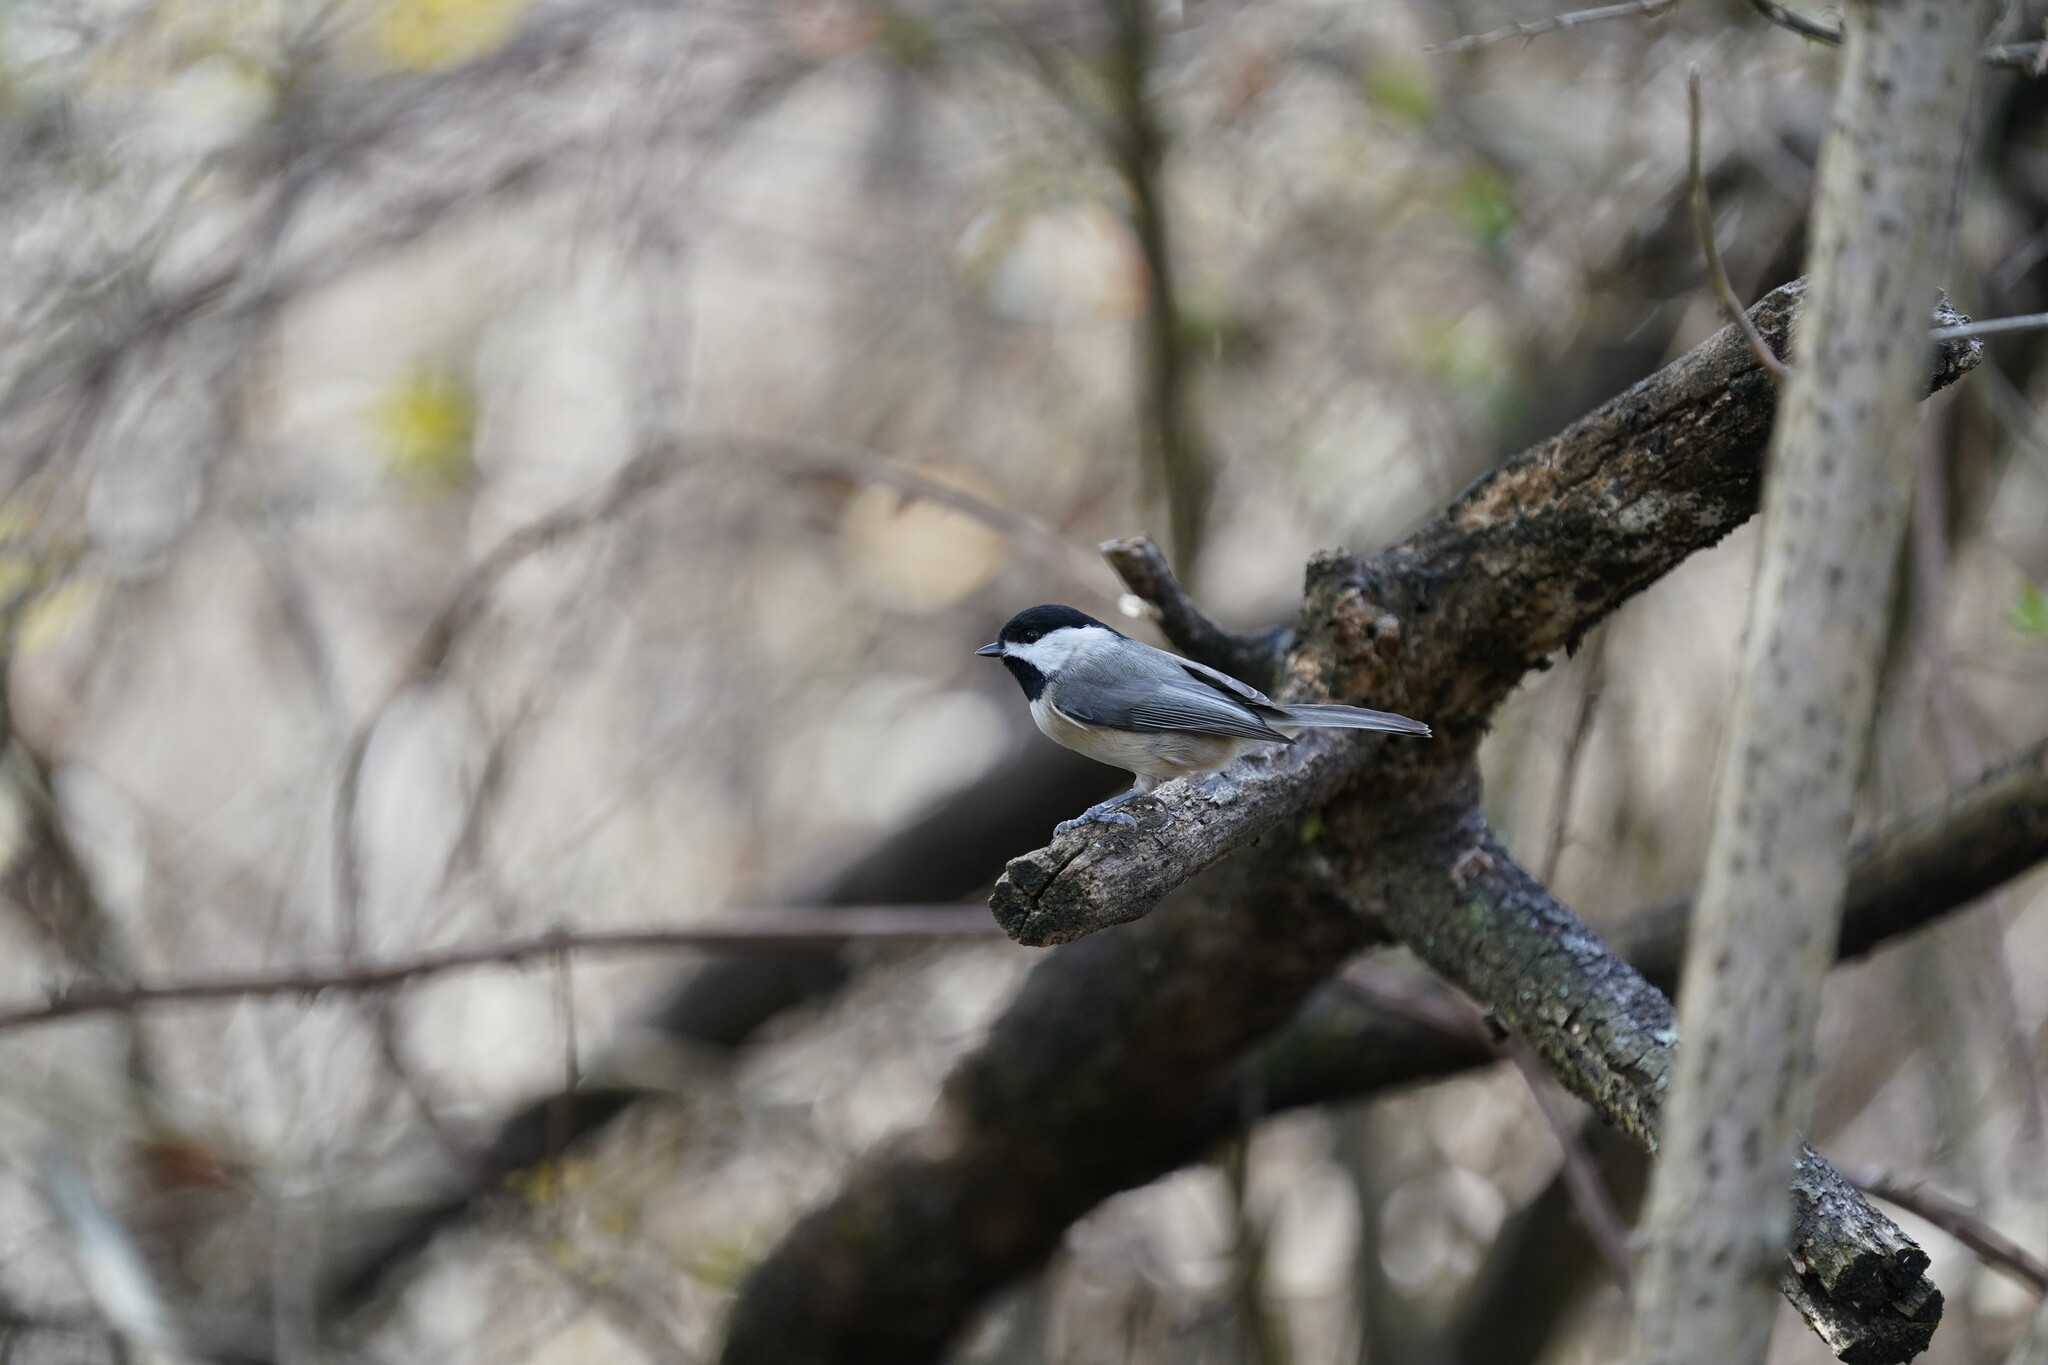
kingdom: Animalia
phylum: Chordata
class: Aves
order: Passeriformes
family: Paridae
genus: Poecile
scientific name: Poecile carolinensis
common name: Carolina chickadee
